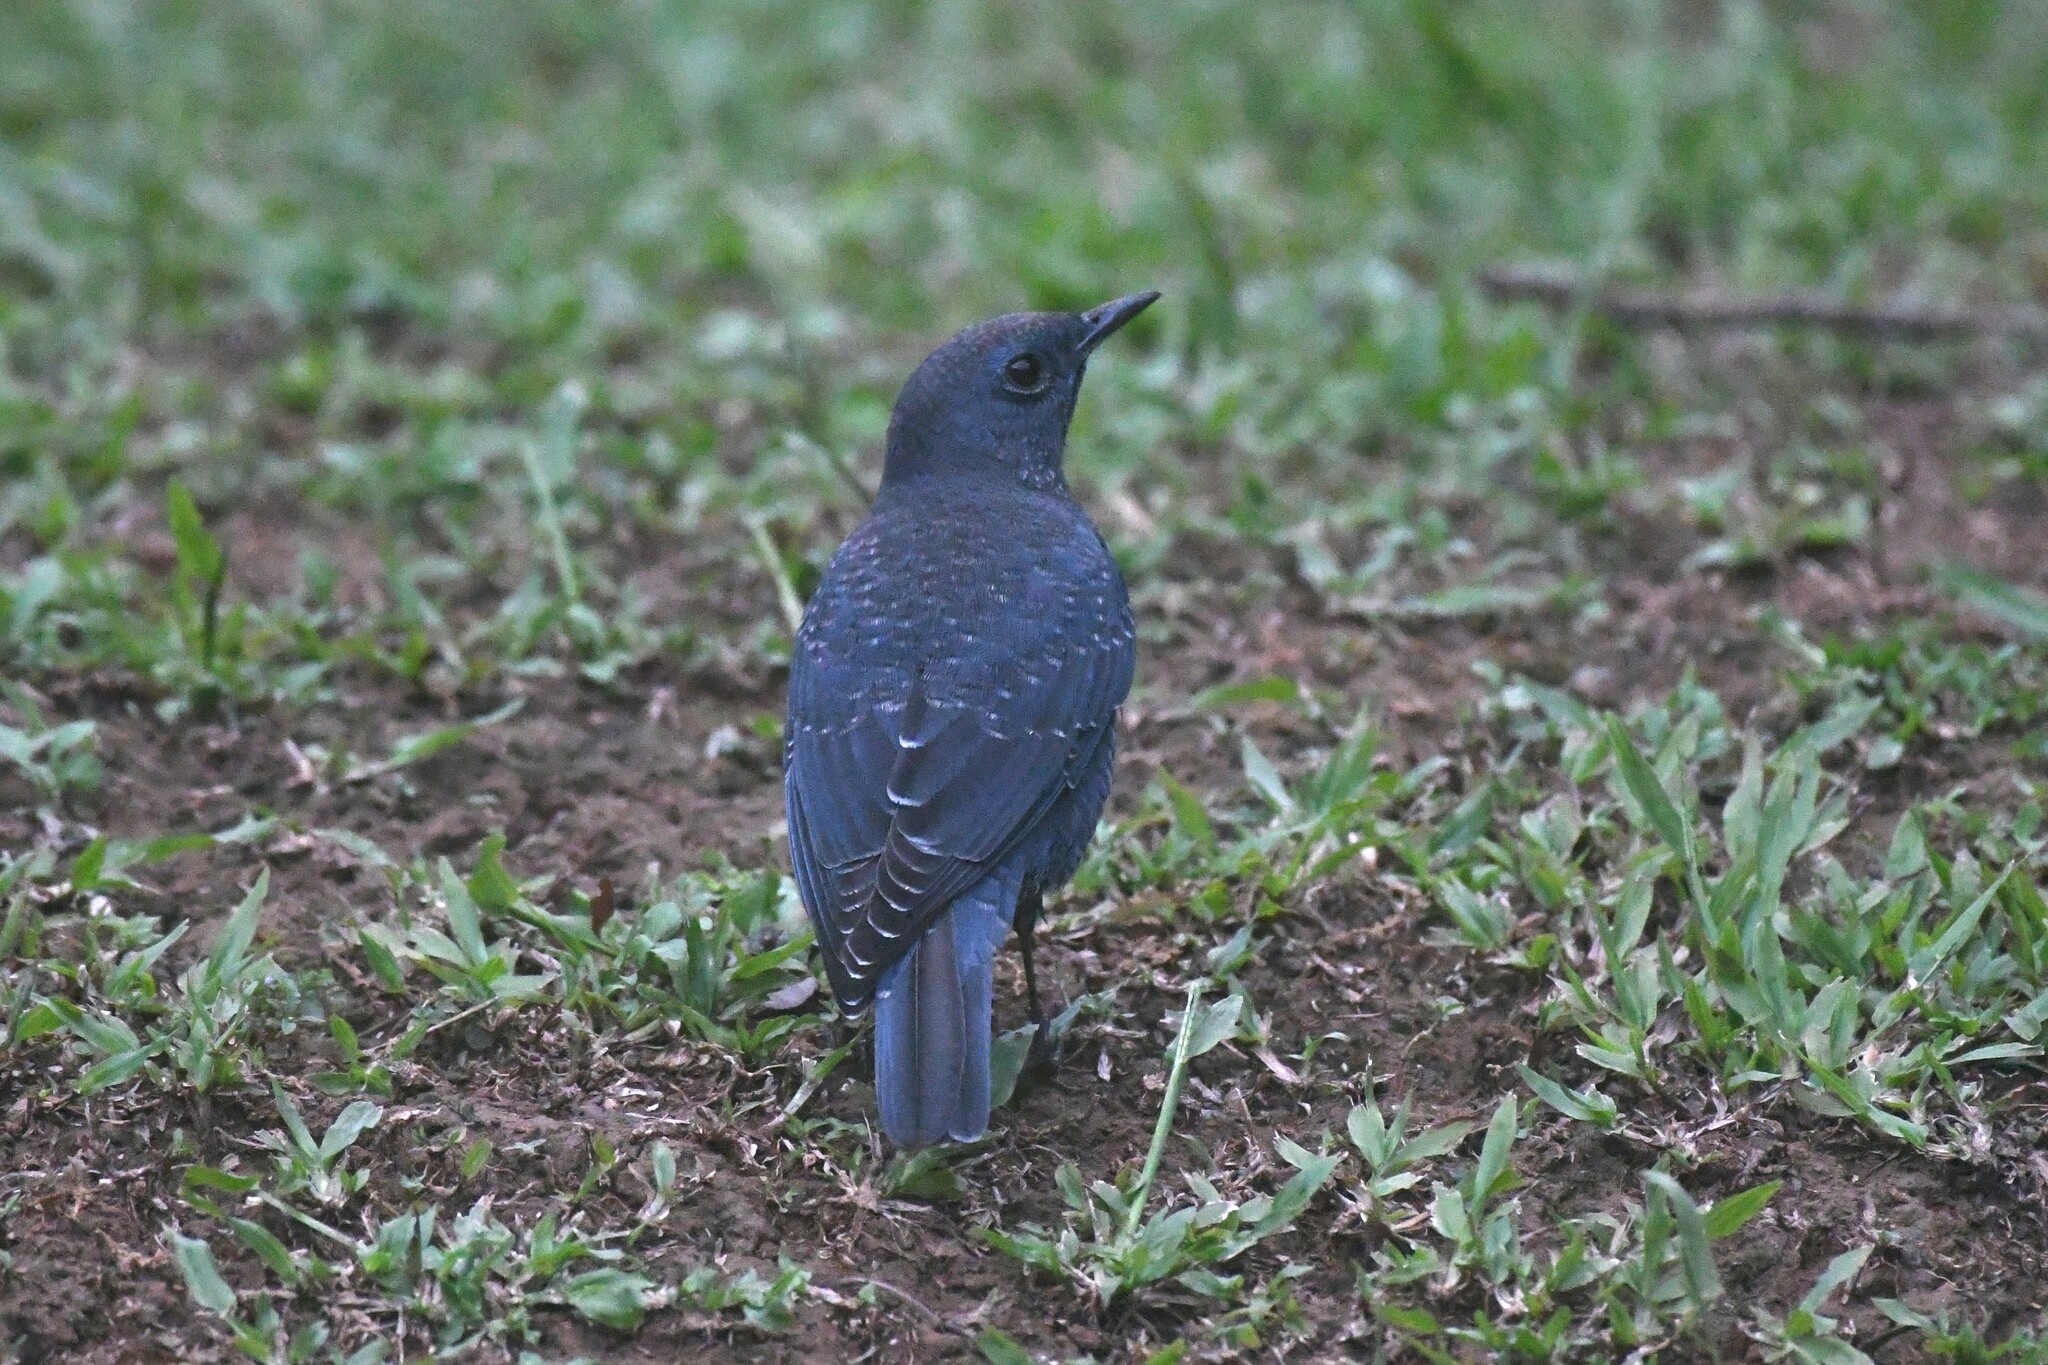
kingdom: Animalia
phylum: Chordata
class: Aves
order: Passeriformes
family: Muscicapidae
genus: Monticola
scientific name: Monticola solitarius
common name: Blue rock thrush
